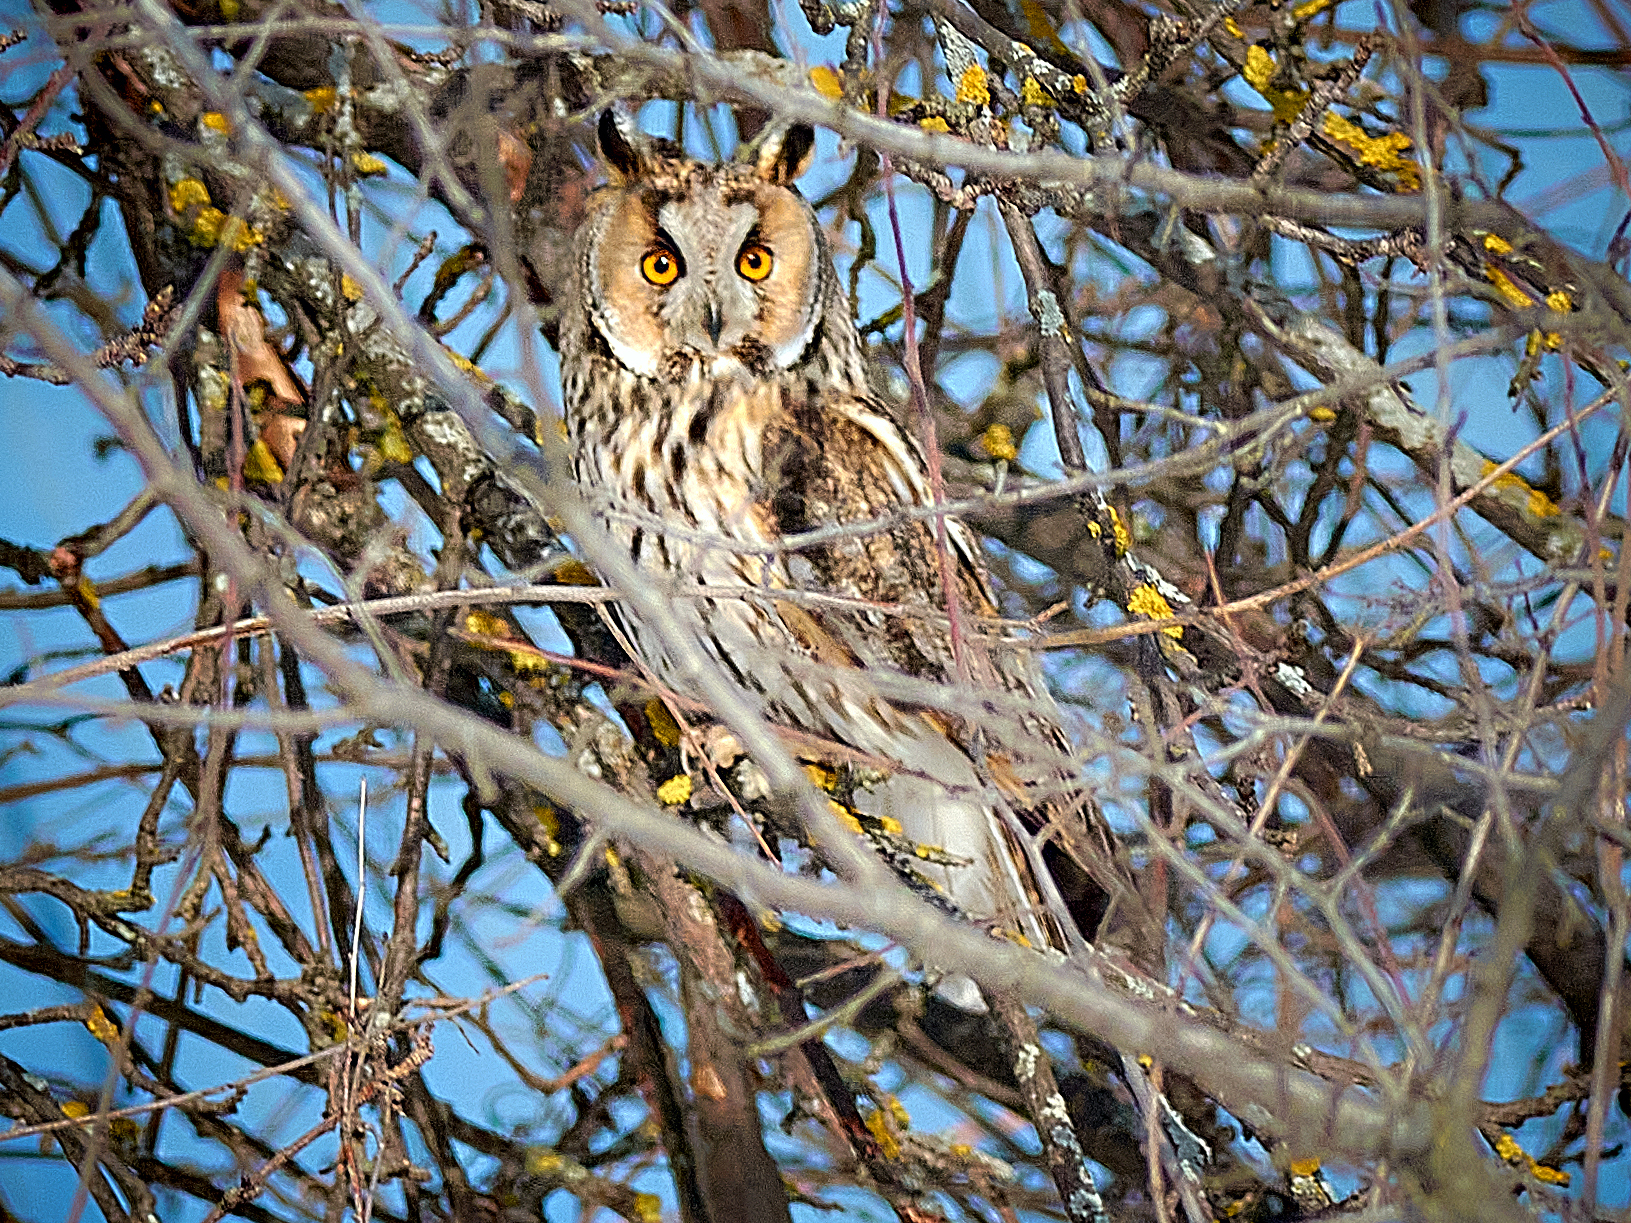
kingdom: Animalia
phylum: Chordata
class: Aves
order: Strigiformes
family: Strigidae
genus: Asio
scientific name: Asio otus
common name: Long-eared owl
